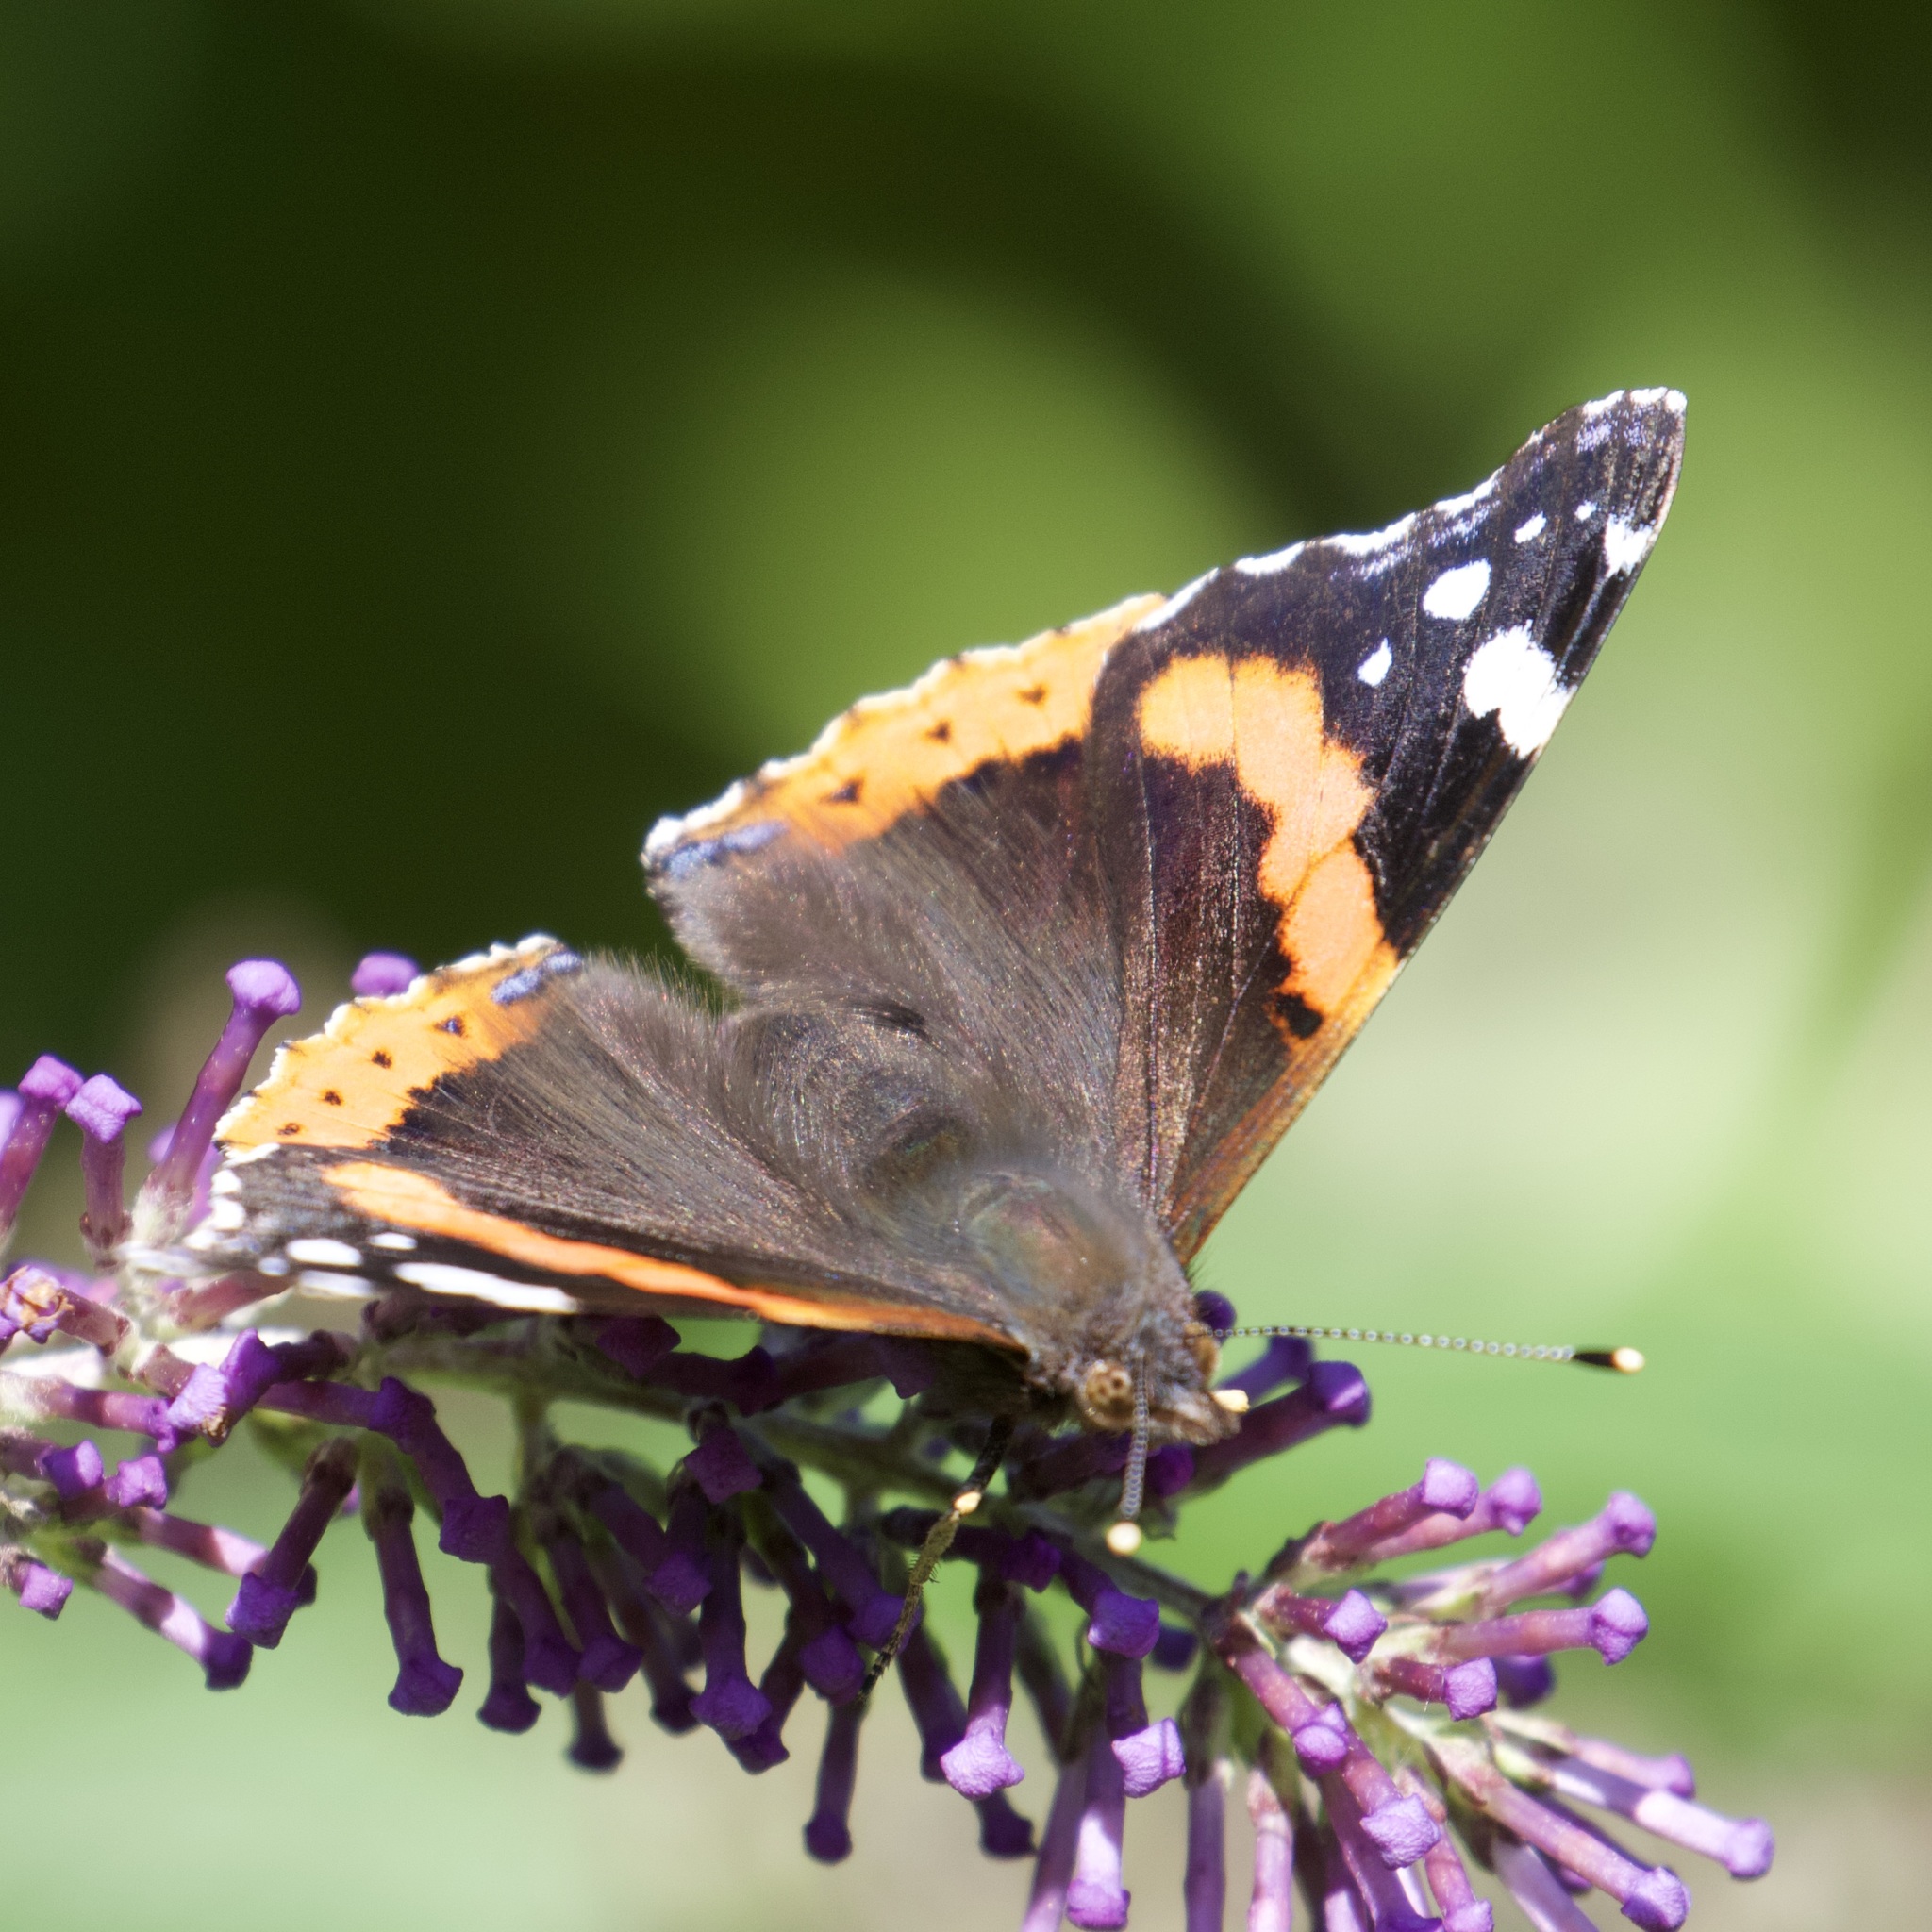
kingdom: Animalia
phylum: Arthropoda
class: Insecta
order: Lepidoptera
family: Nymphalidae
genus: Vanessa
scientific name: Vanessa atalanta
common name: Red admiral
